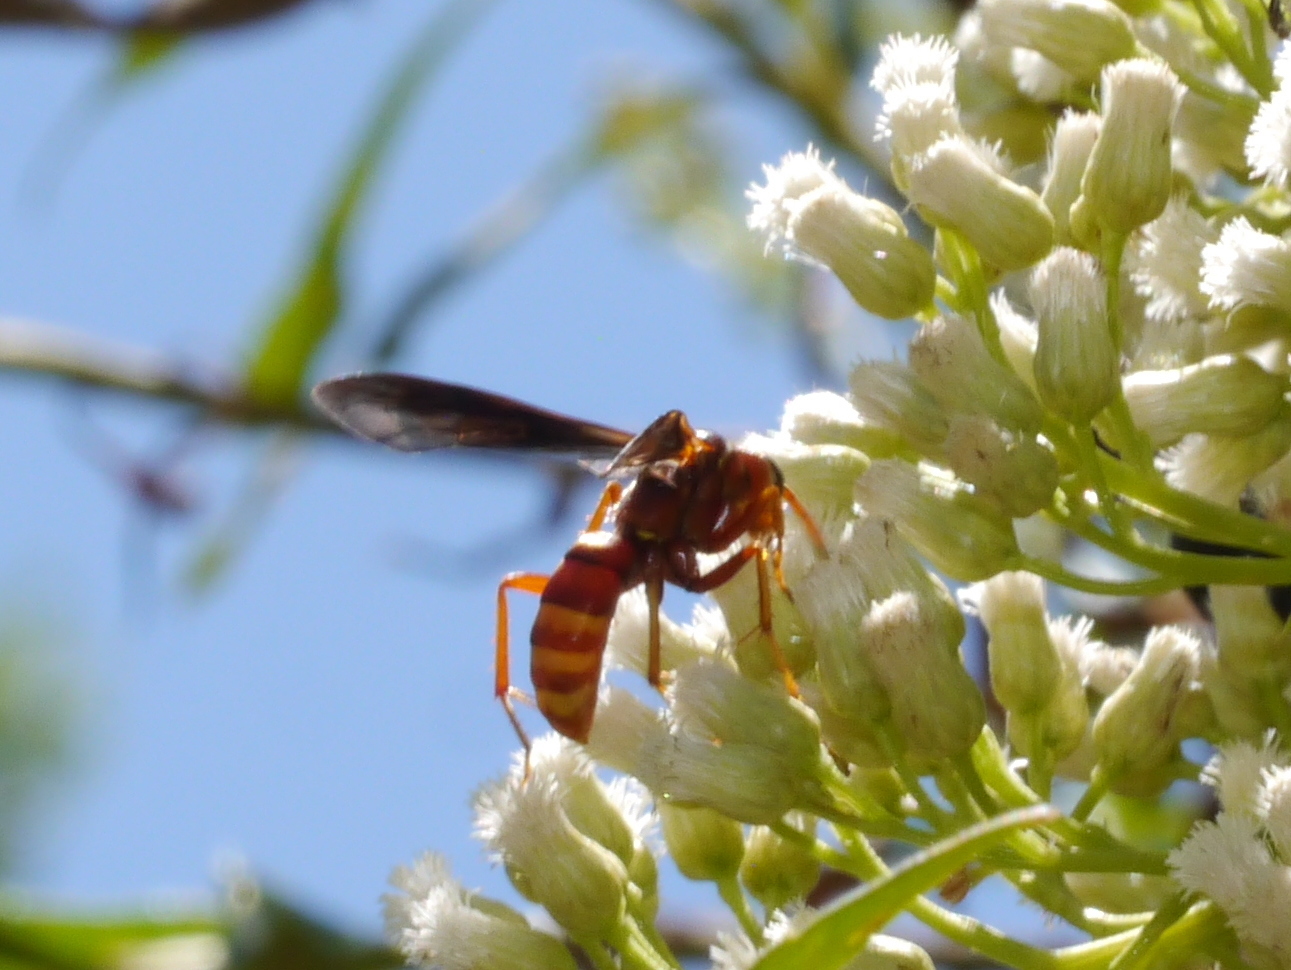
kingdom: Animalia
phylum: Arthropoda
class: Insecta
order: Hymenoptera
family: Pompilidae
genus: Poecilopompilus
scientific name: Poecilopompilus algidus
